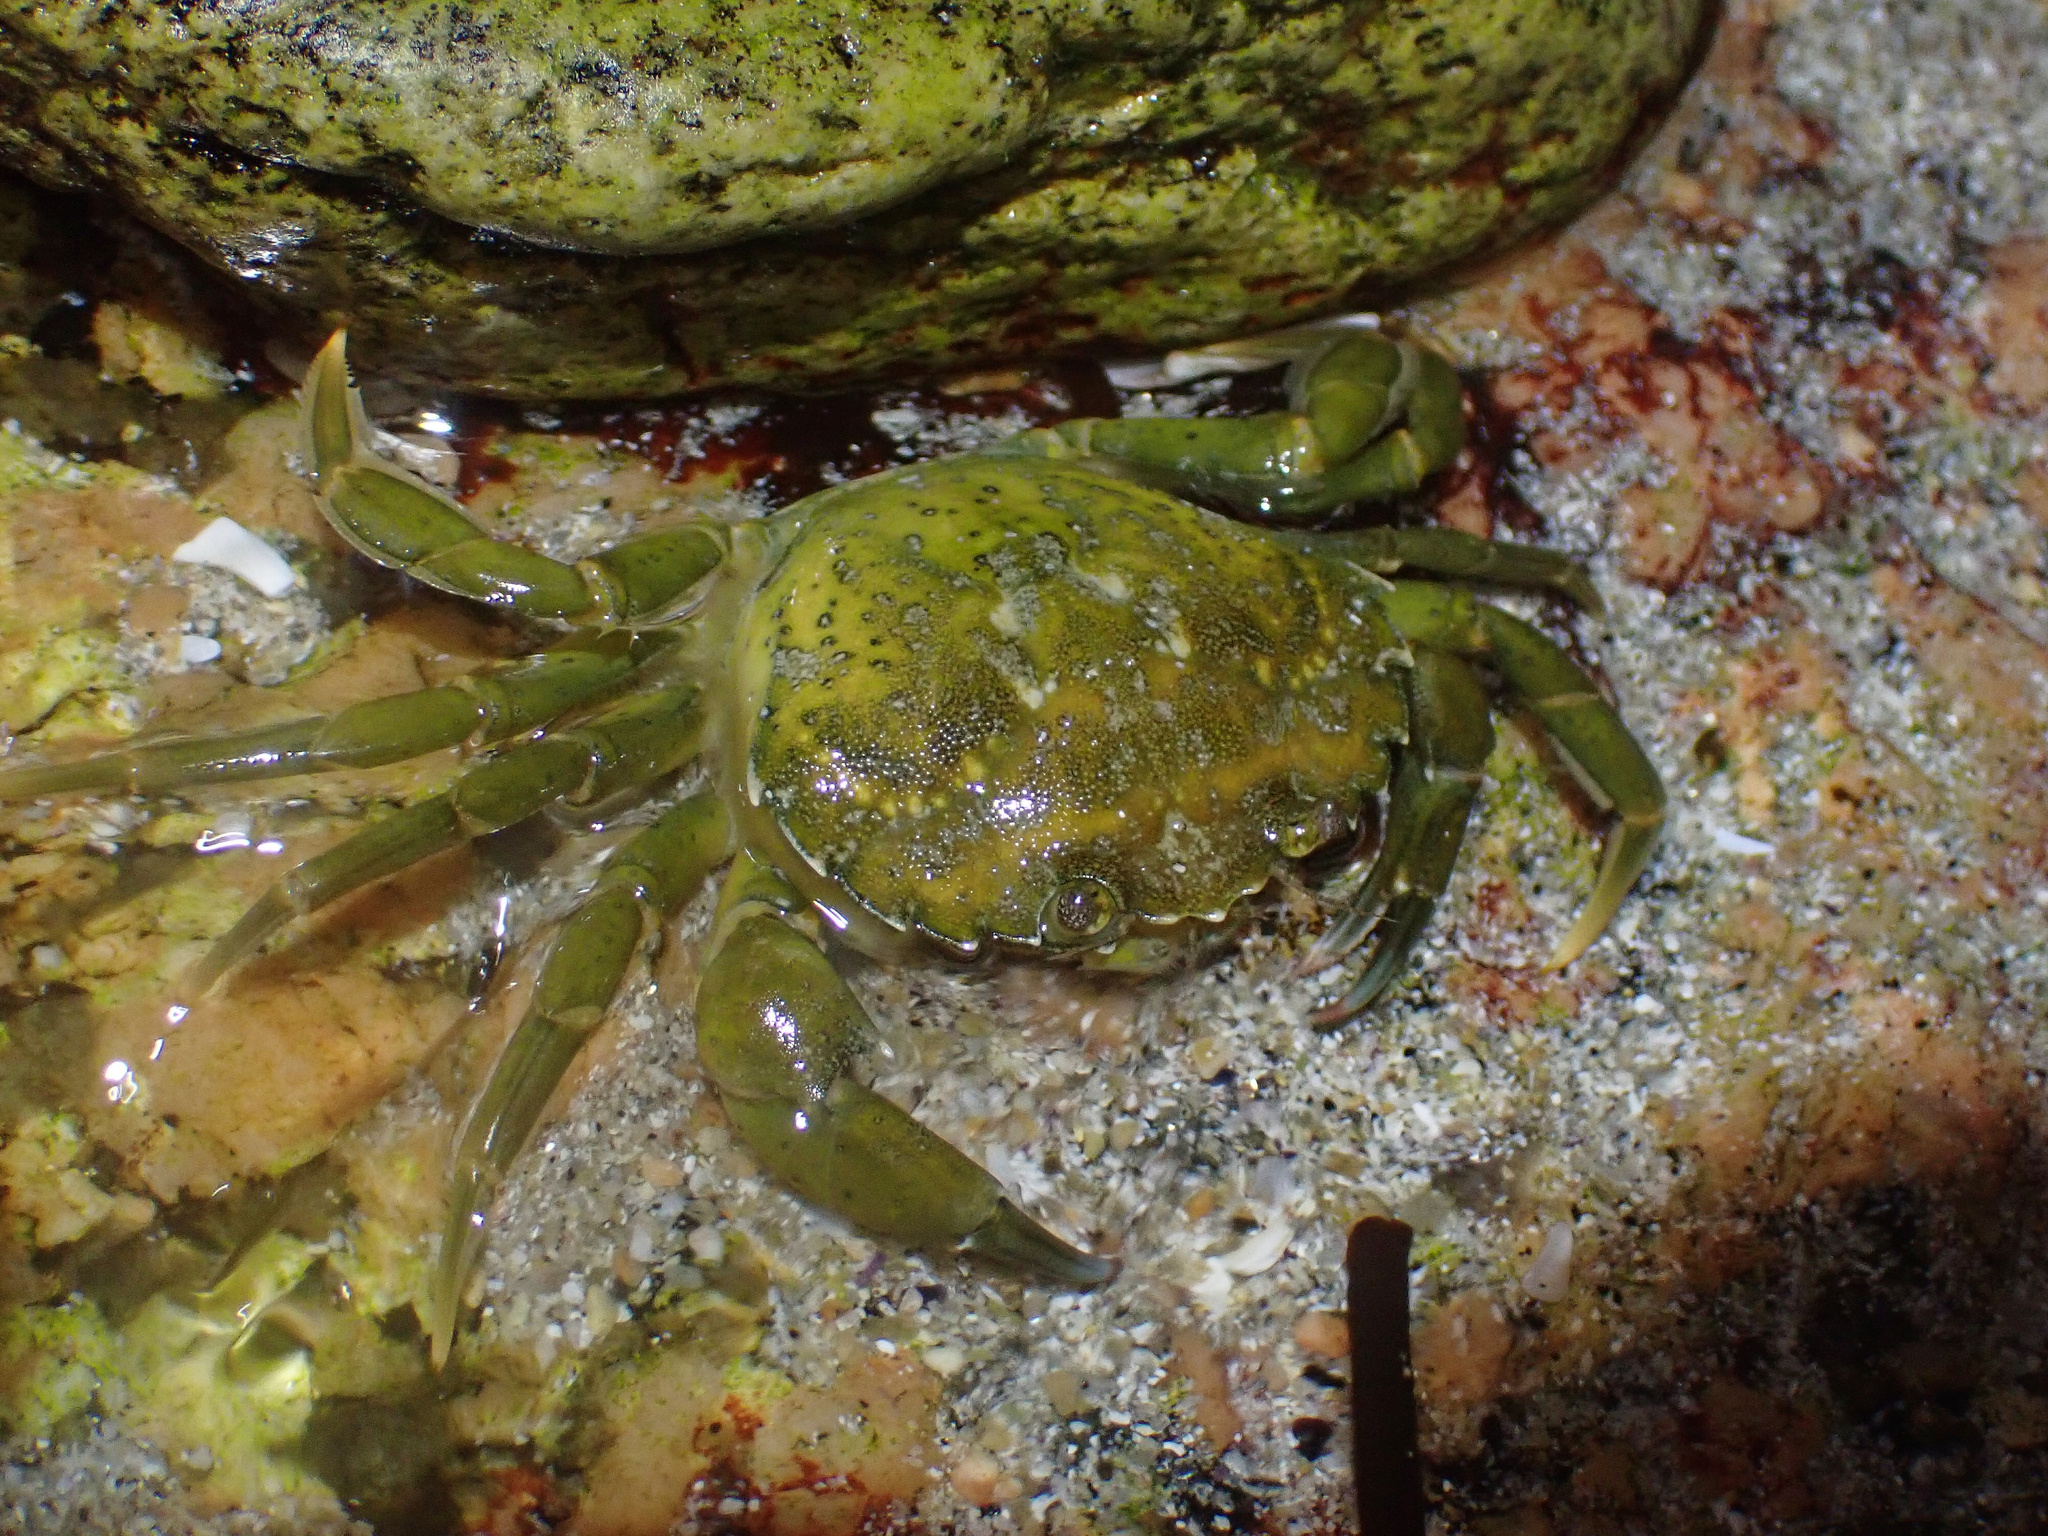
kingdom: Animalia
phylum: Arthropoda
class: Malacostraca
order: Decapoda
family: Carcinidae
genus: Carcinus
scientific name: Carcinus maenas
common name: European green crab
